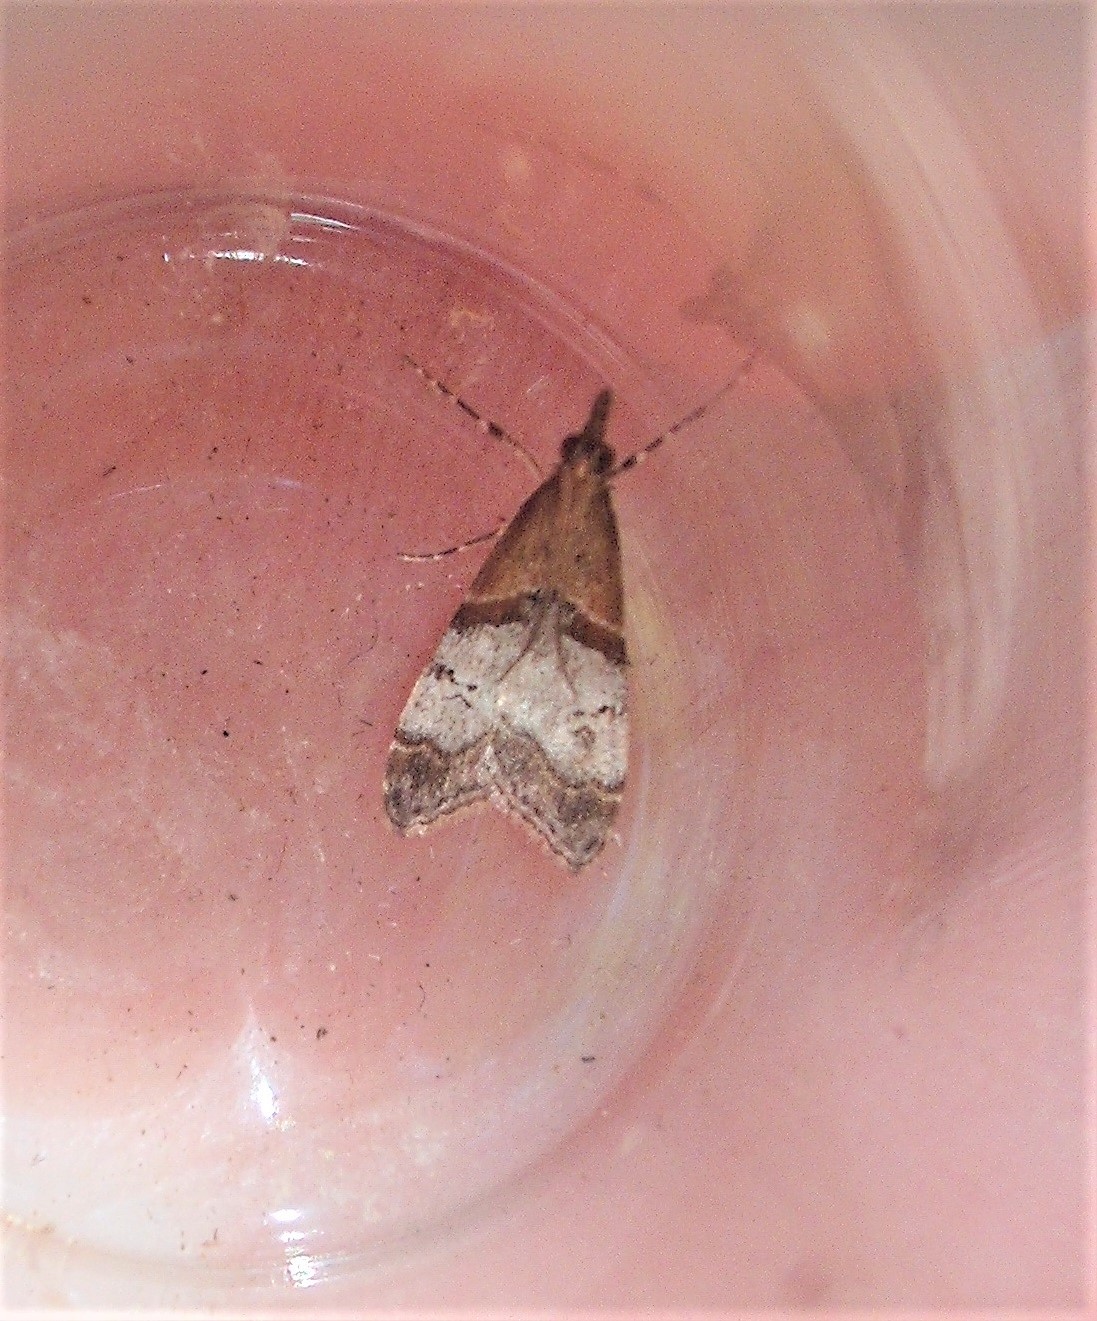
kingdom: Animalia
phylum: Arthropoda
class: Insecta
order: Lepidoptera
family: Crambidae
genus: Antiscopa
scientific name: Antiscopa epicomia
